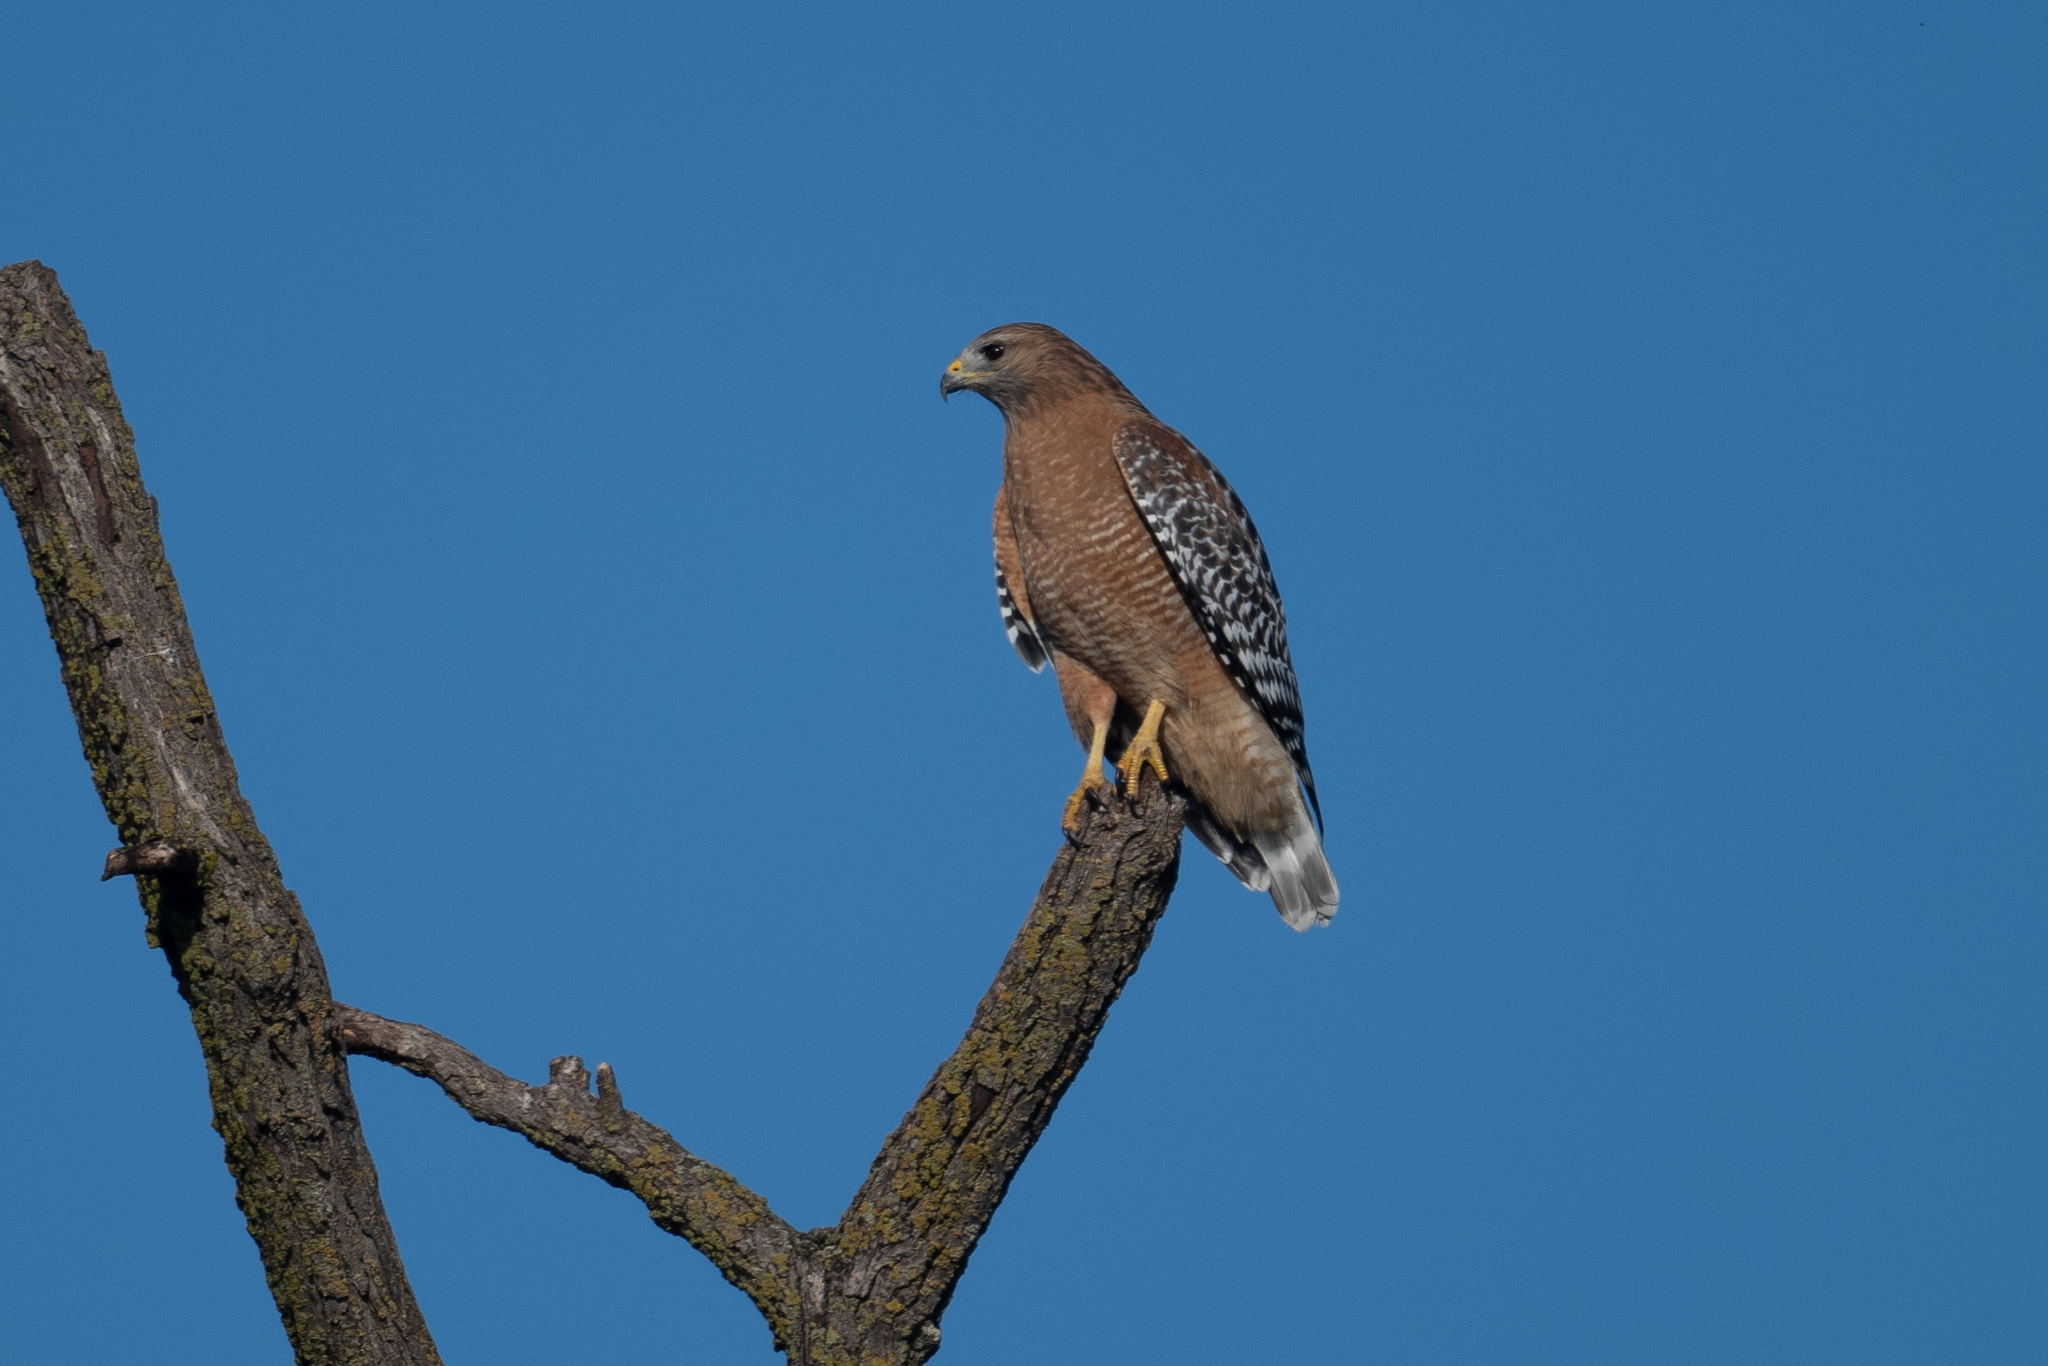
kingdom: Animalia
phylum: Chordata
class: Aves
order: Accipitriformes
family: Accipitridae
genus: Buteo
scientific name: Buteo lineatus
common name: Red-shouldered hawk
